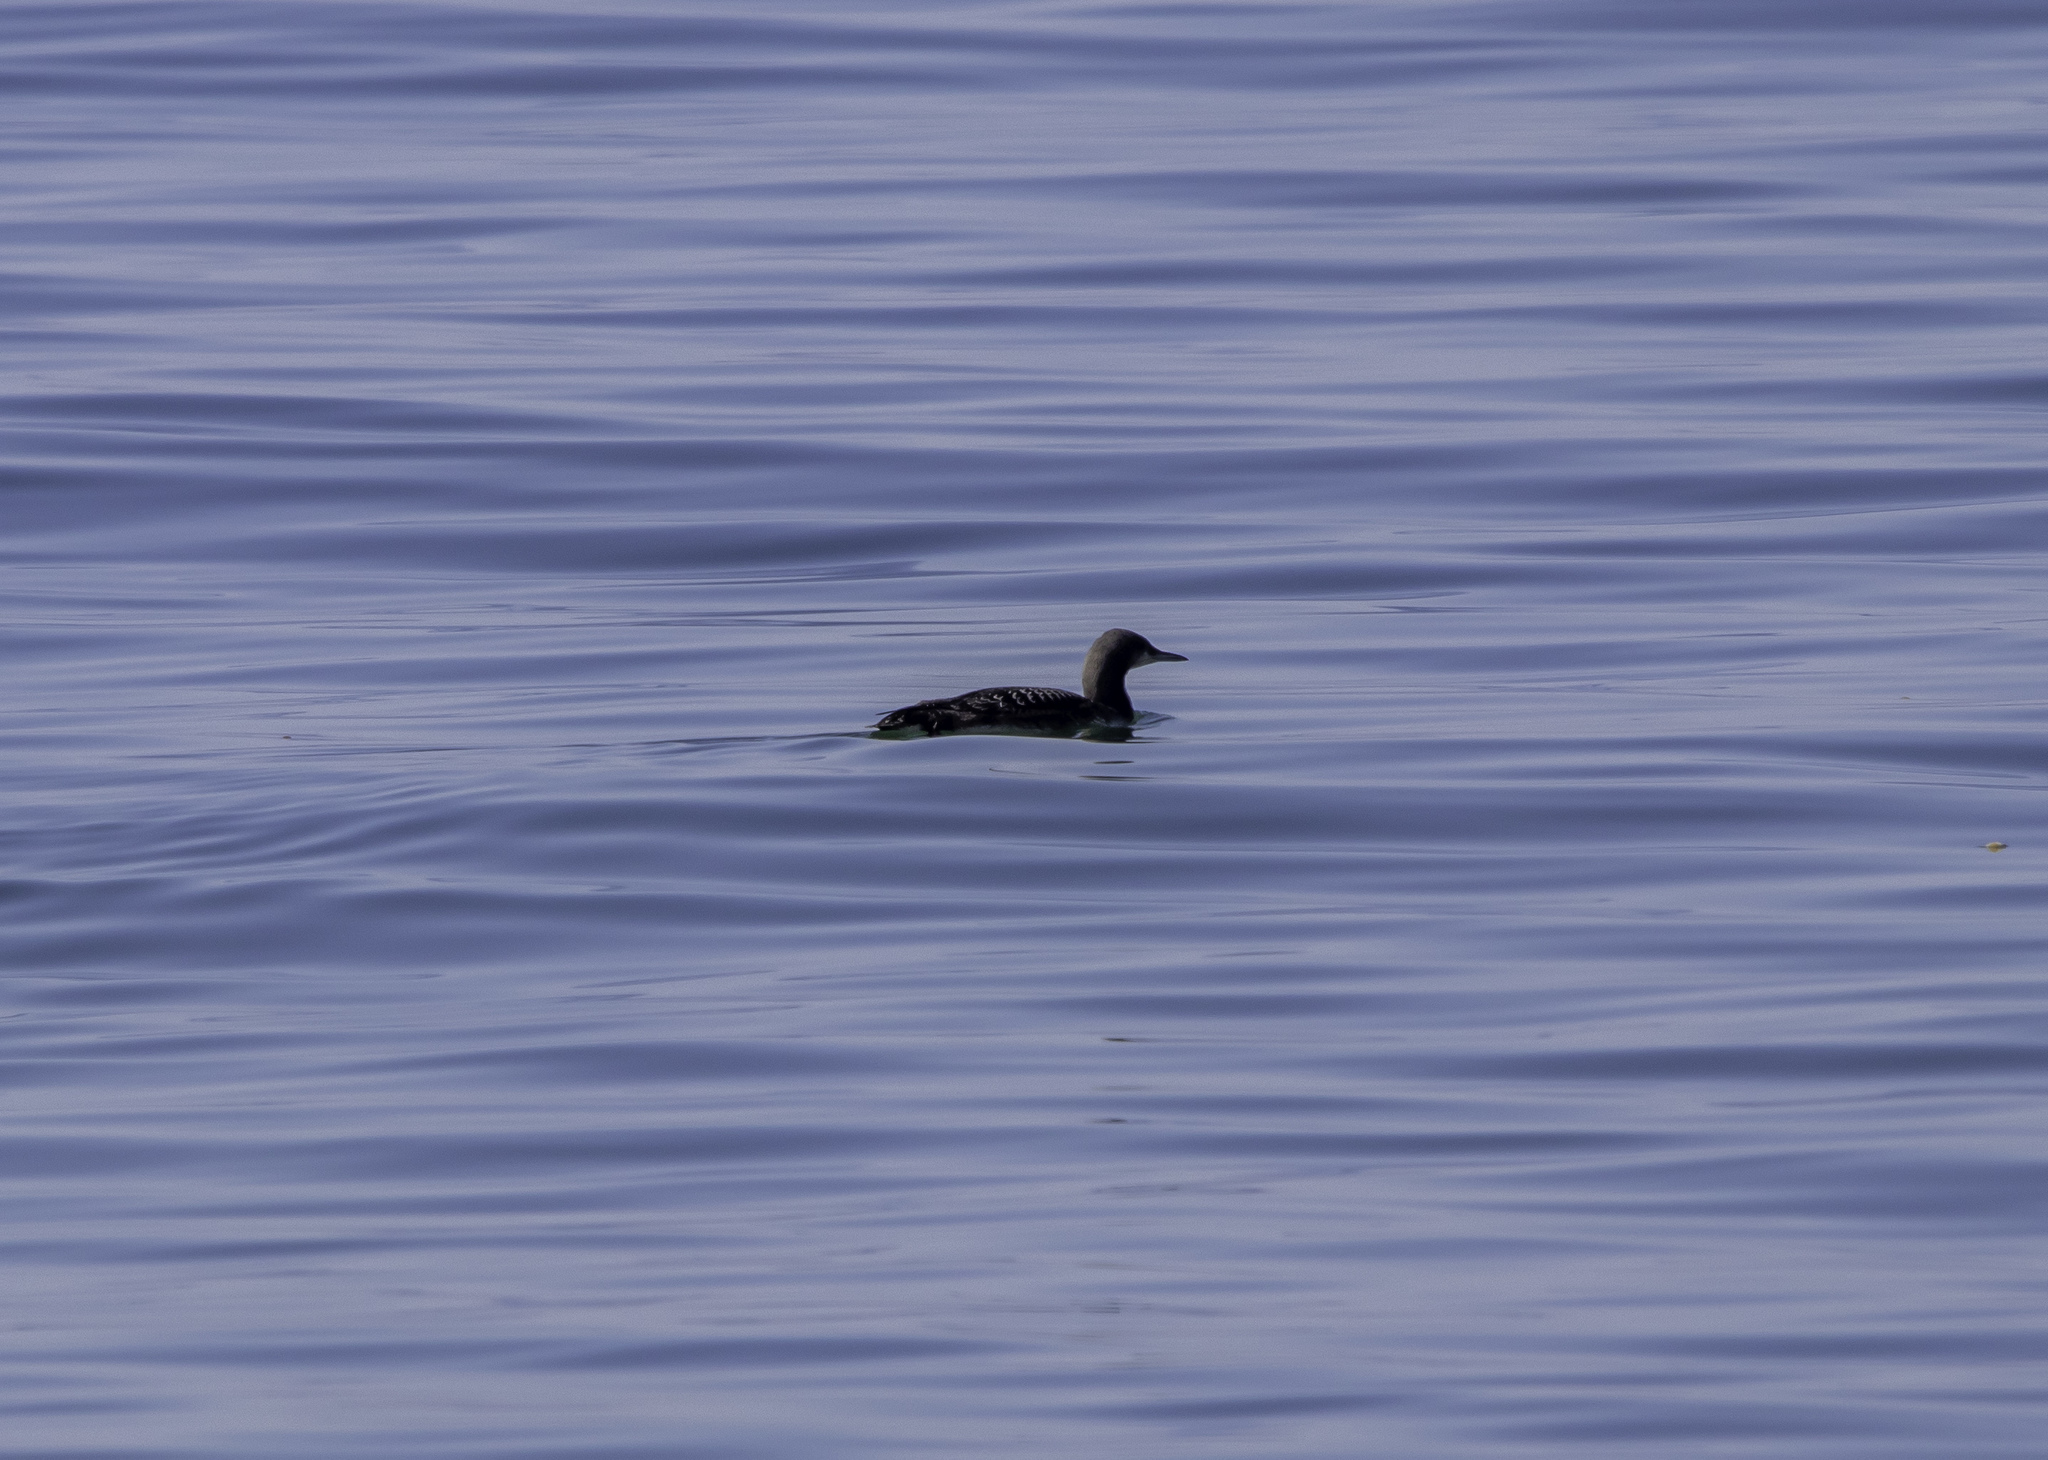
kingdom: Animalia
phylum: Chordata
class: Aves
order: Gaviiformes
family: Gaviidae
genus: Gavia
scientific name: Gavia pacifica
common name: Pacific loon
